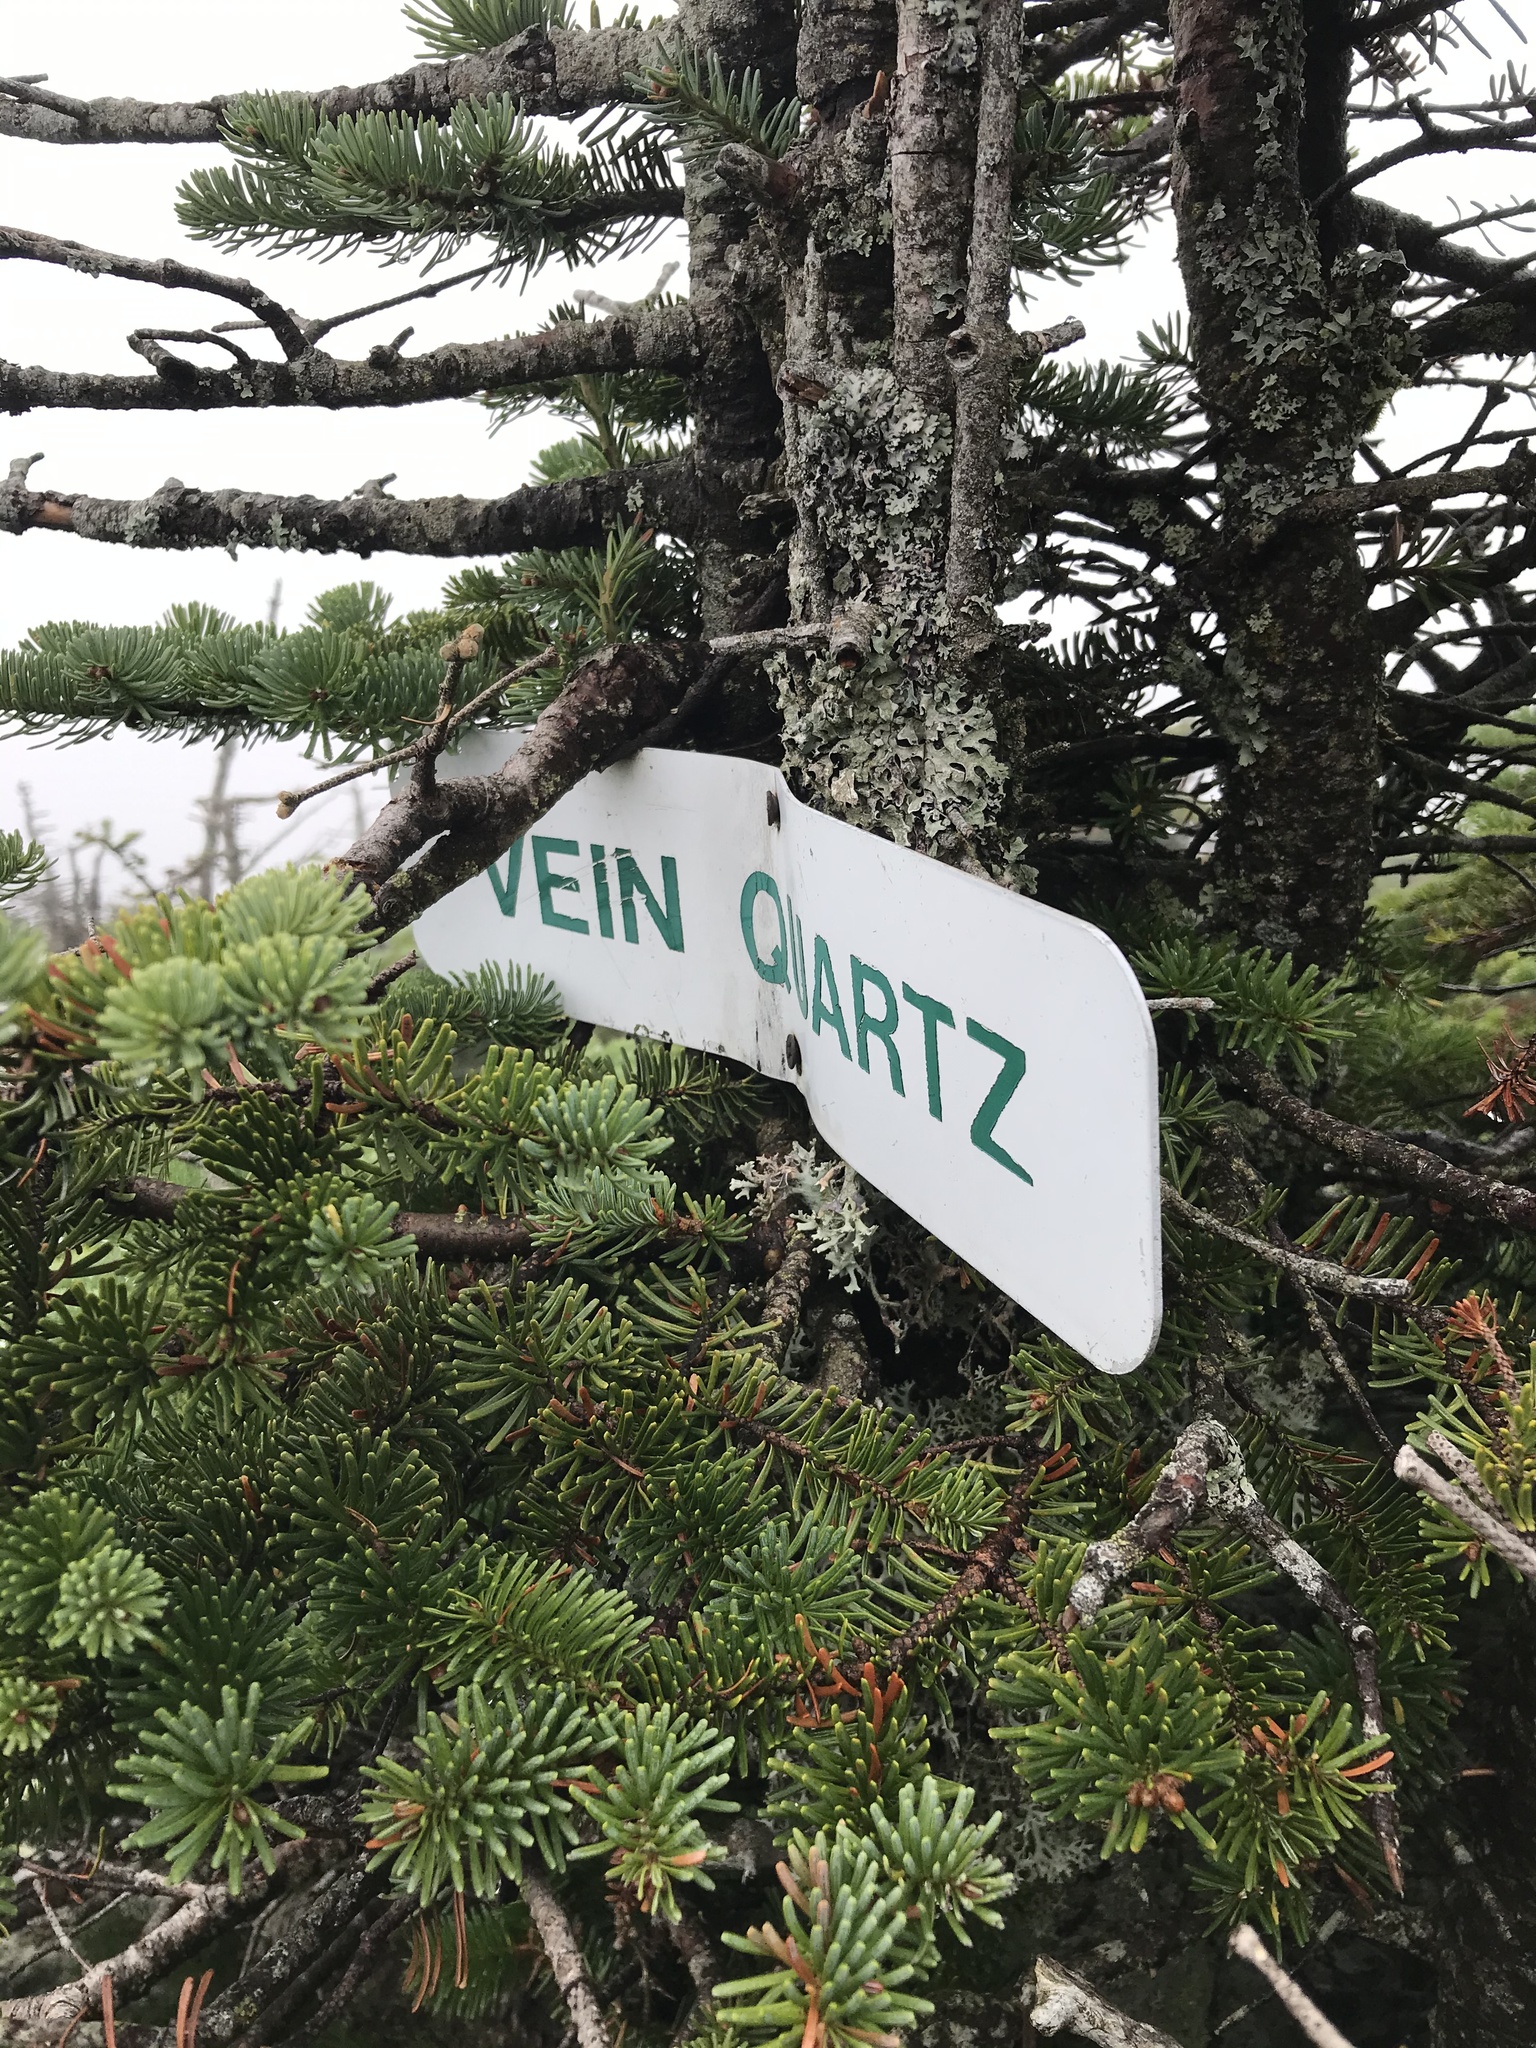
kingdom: Plantae
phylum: Tracheophyta
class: Pinopsida
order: Pinales
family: Pinaceae
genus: Abies
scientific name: Abies balsamea
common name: Balsam fir
